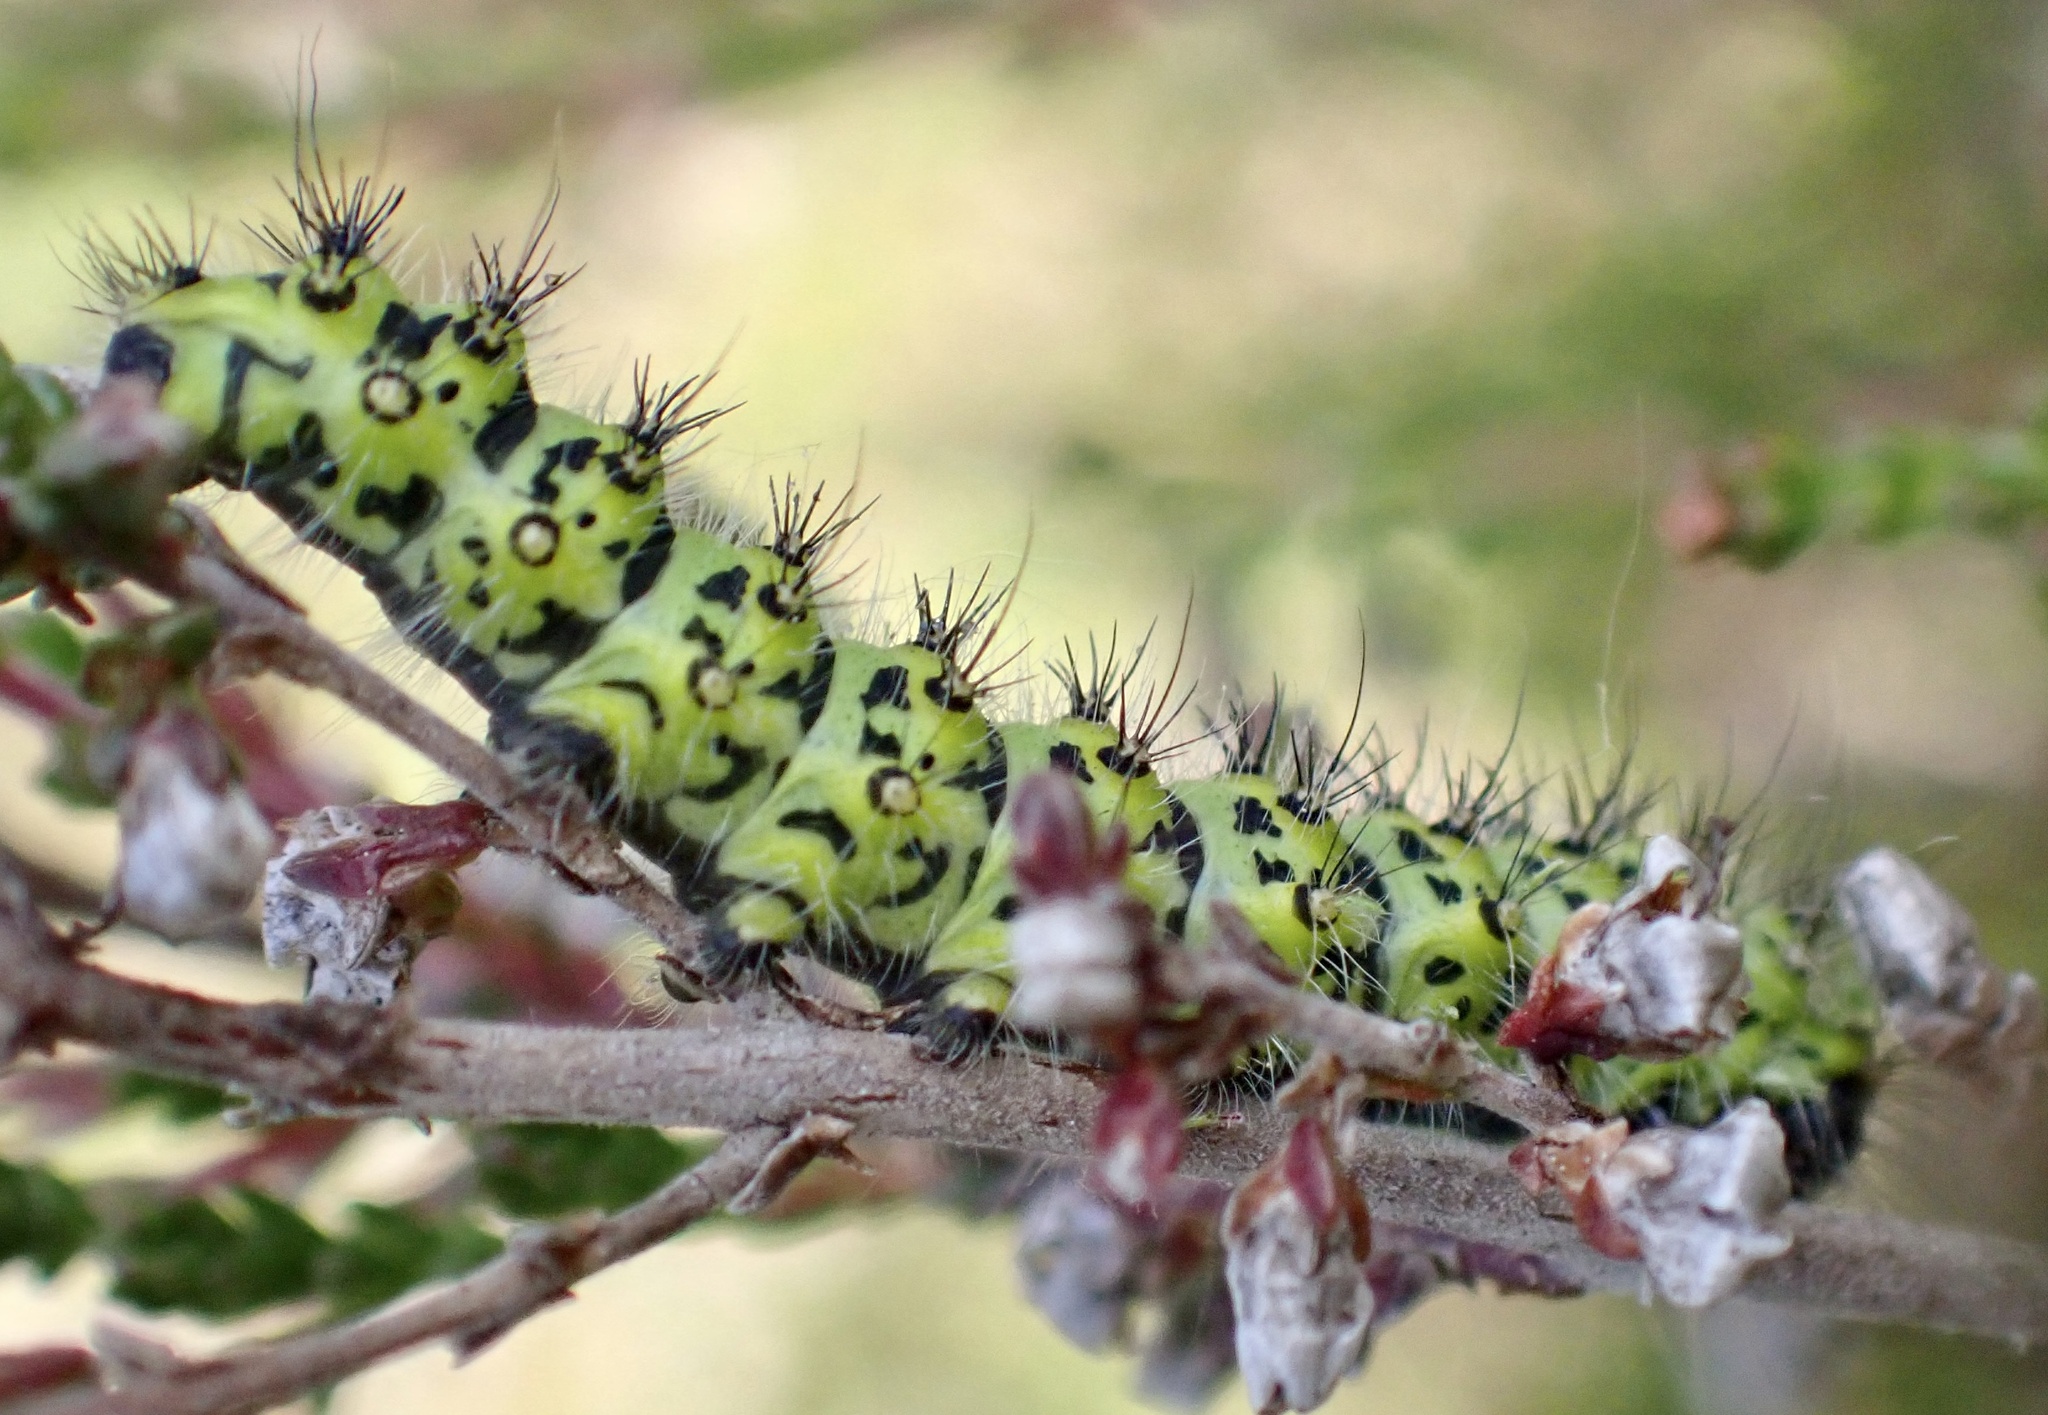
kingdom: Animalia
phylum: Arthropoda
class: Insecta
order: Lepidoptera
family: Saturniidae
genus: Saturnia
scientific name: Saturnia pavonia
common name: Emperor moth
